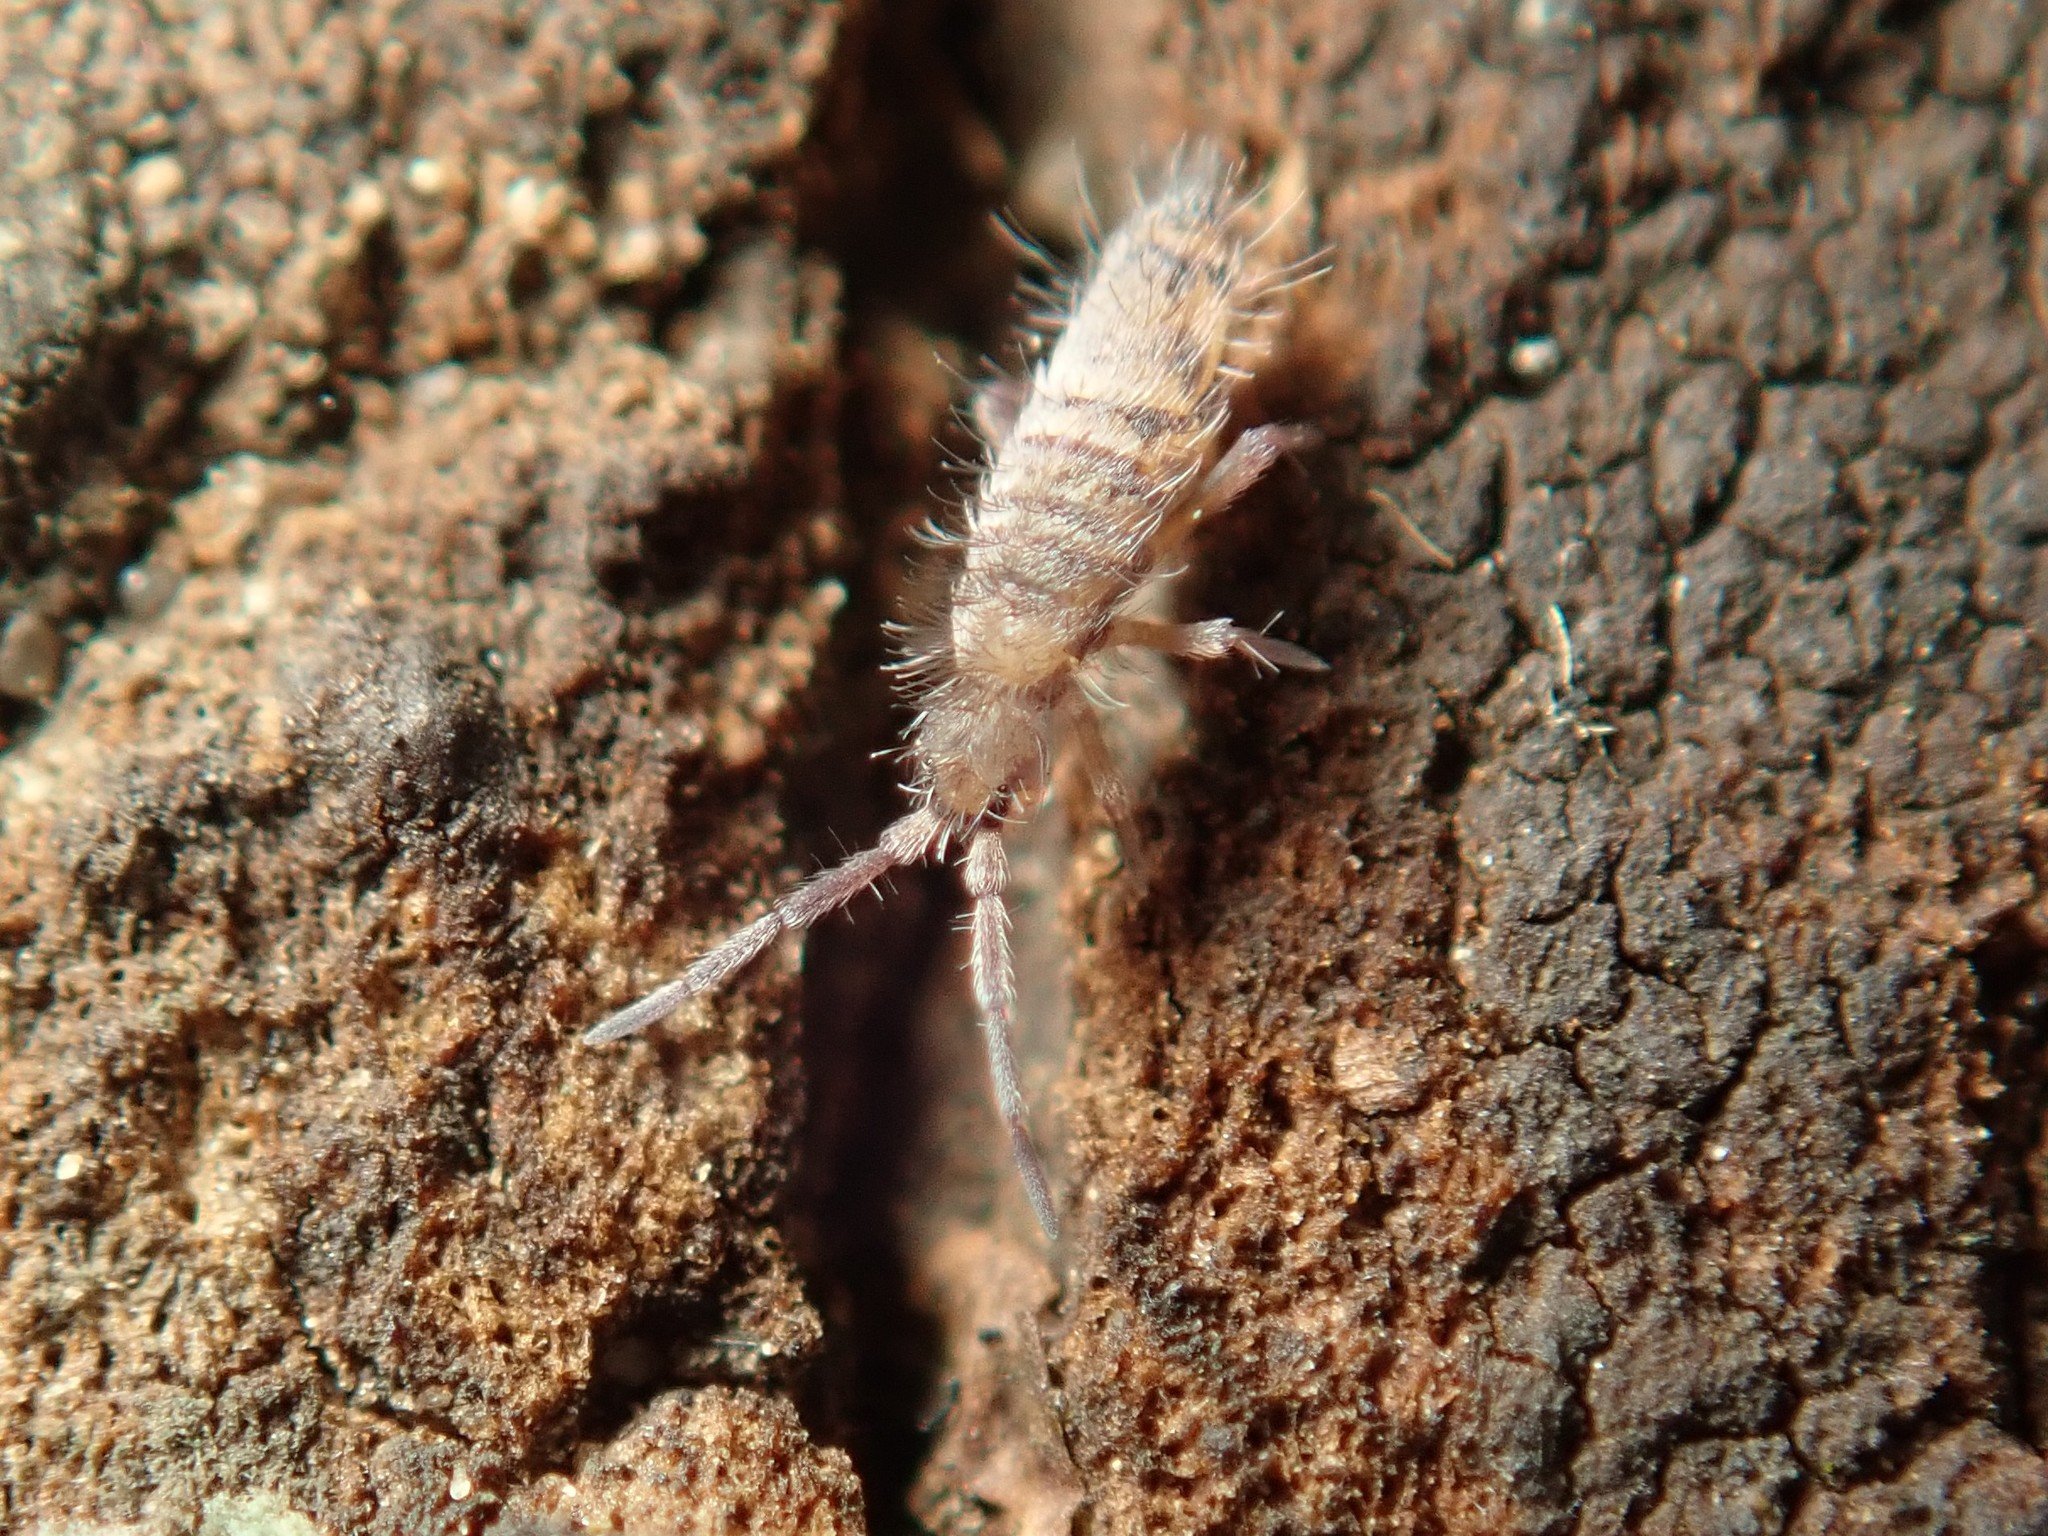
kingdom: Animalia
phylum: Arthropoda
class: Collembola
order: Entomobryomorpha
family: Entomobryidae
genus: Entomobrya
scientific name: Entomobrya multifasciata
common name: Springtail
